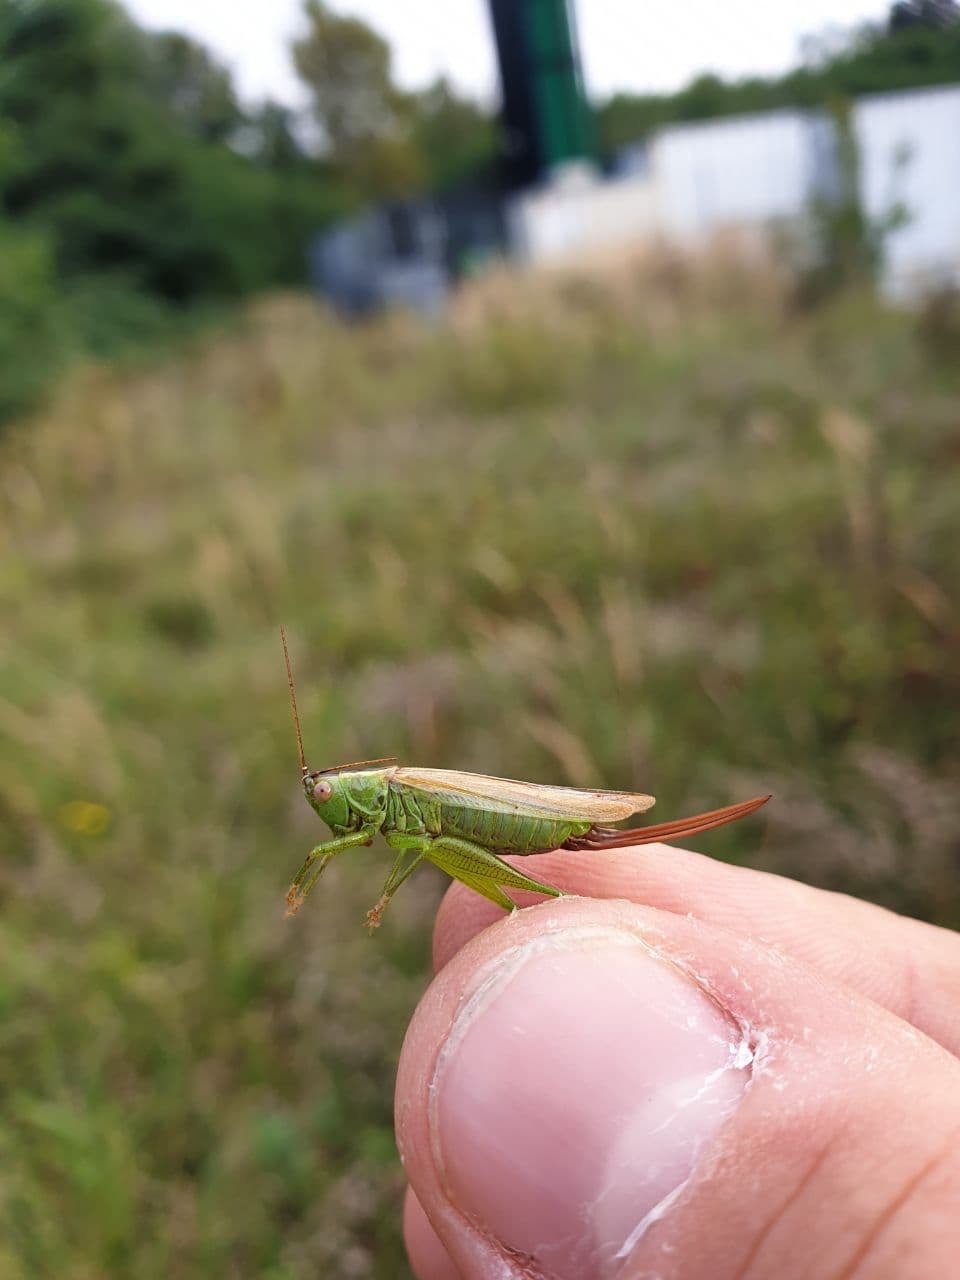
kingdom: Animalia
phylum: Arthropoda
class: Insecta
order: Orthoptera
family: Tettigoniidae
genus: Conocephalus
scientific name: Conocephalus fuscus
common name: Long-winged conehead
